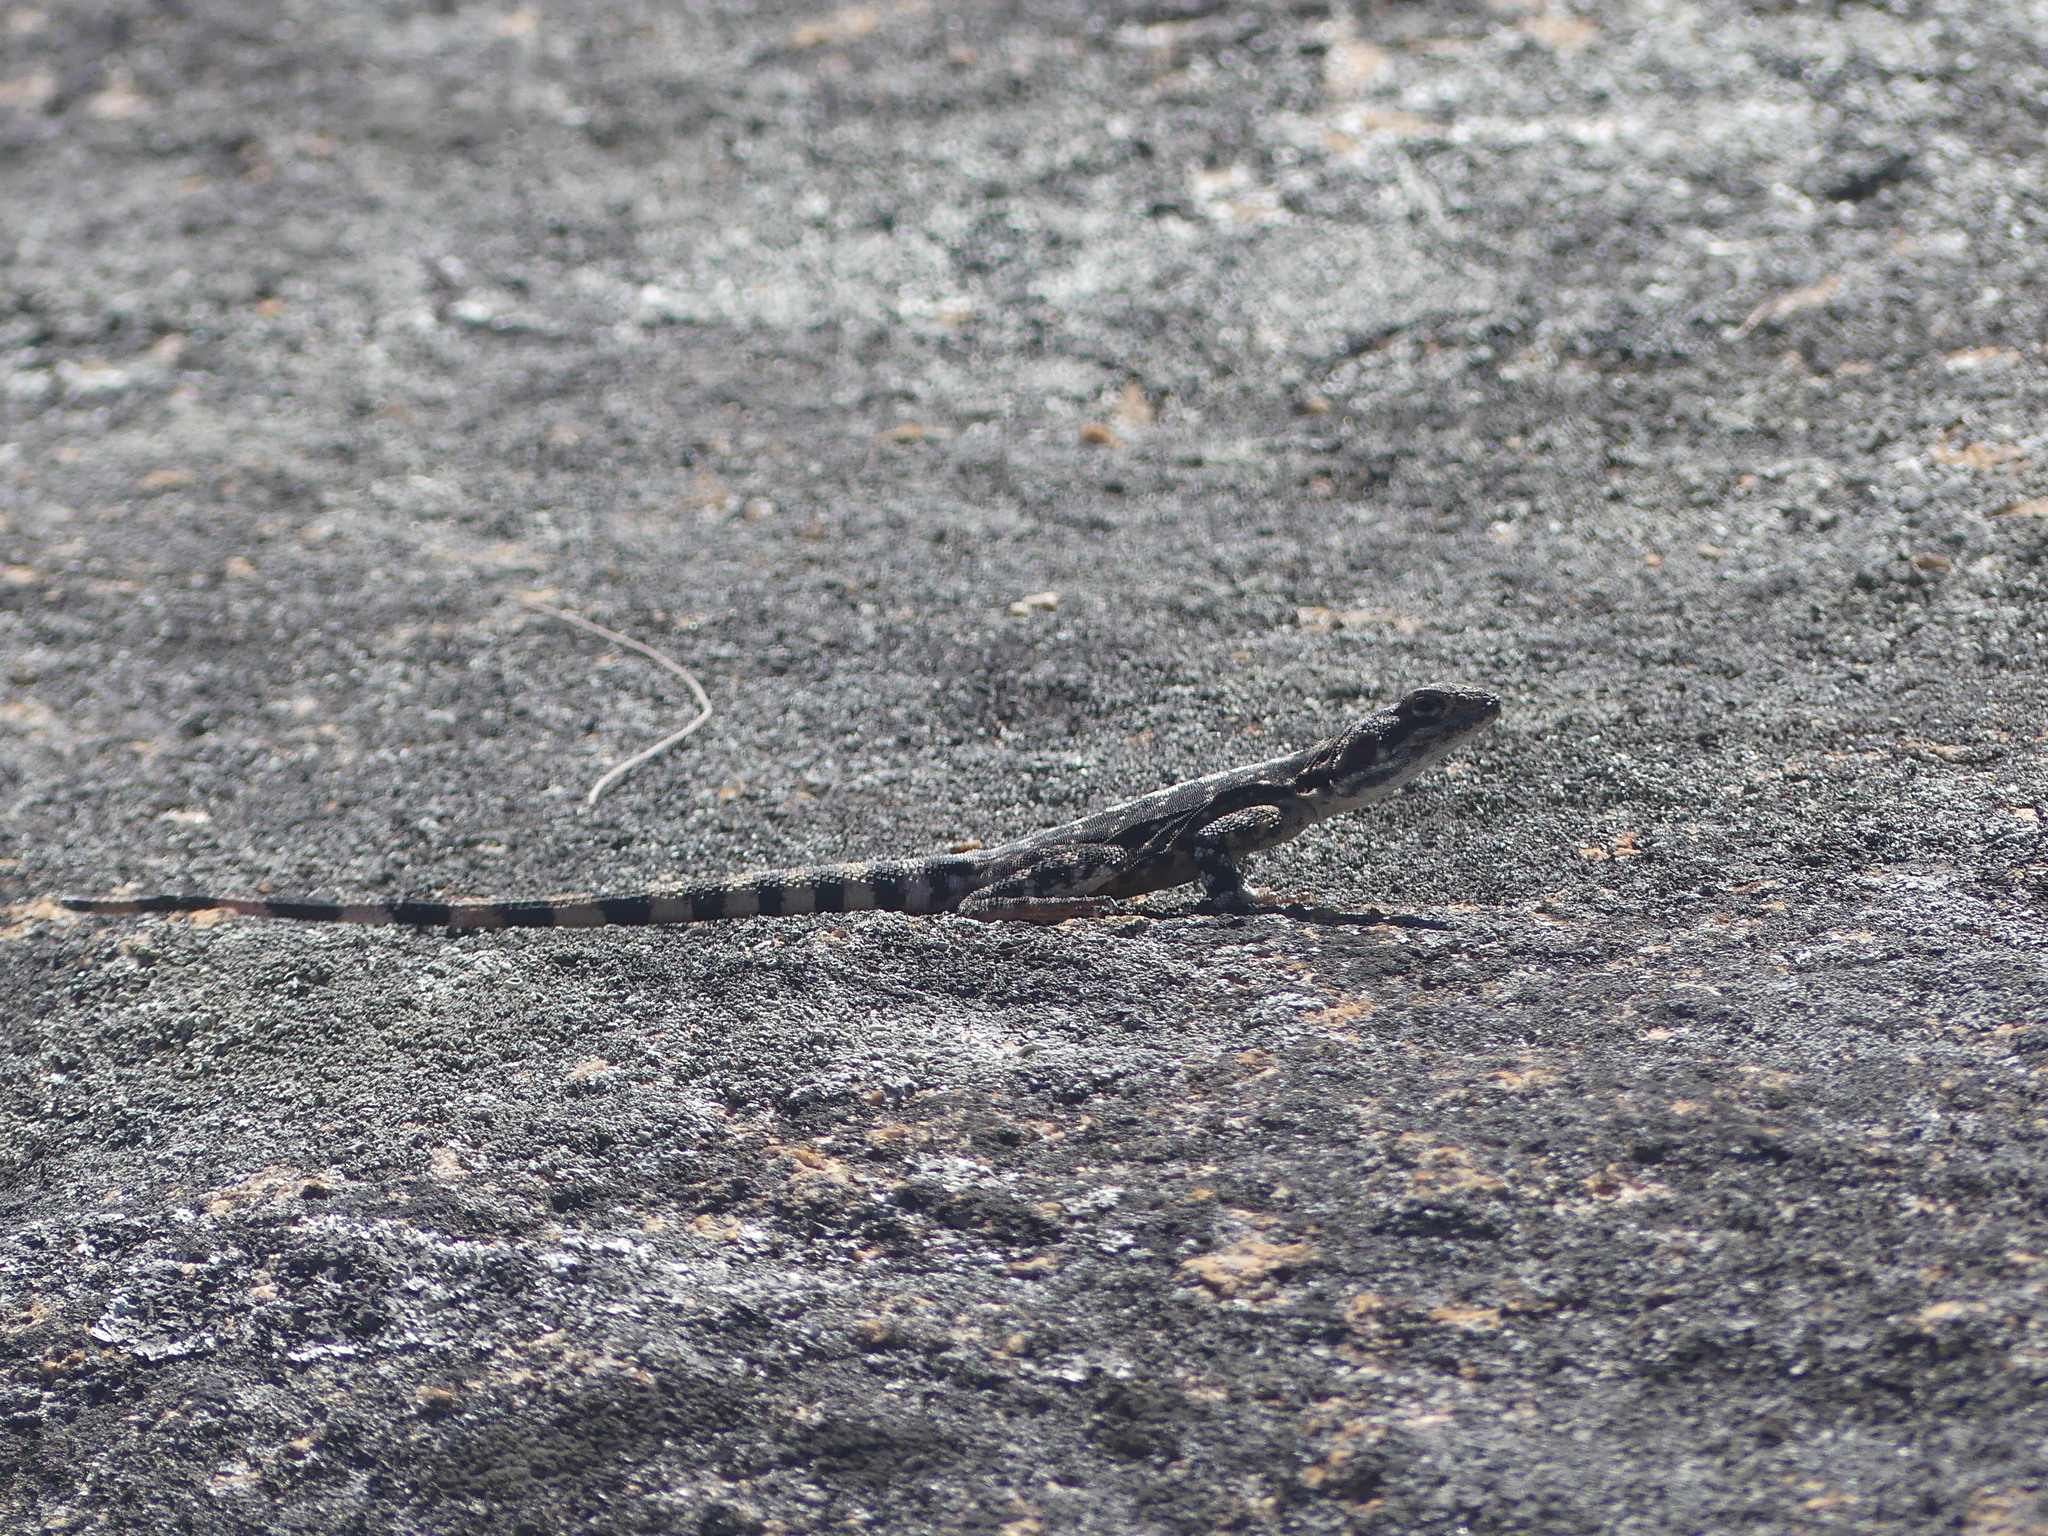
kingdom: Animalia
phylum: Chordata
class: Squamata
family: Agamidae
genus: Ctenophorus
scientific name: Ctenophorus ornatus
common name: Ornate crevice-dragon
